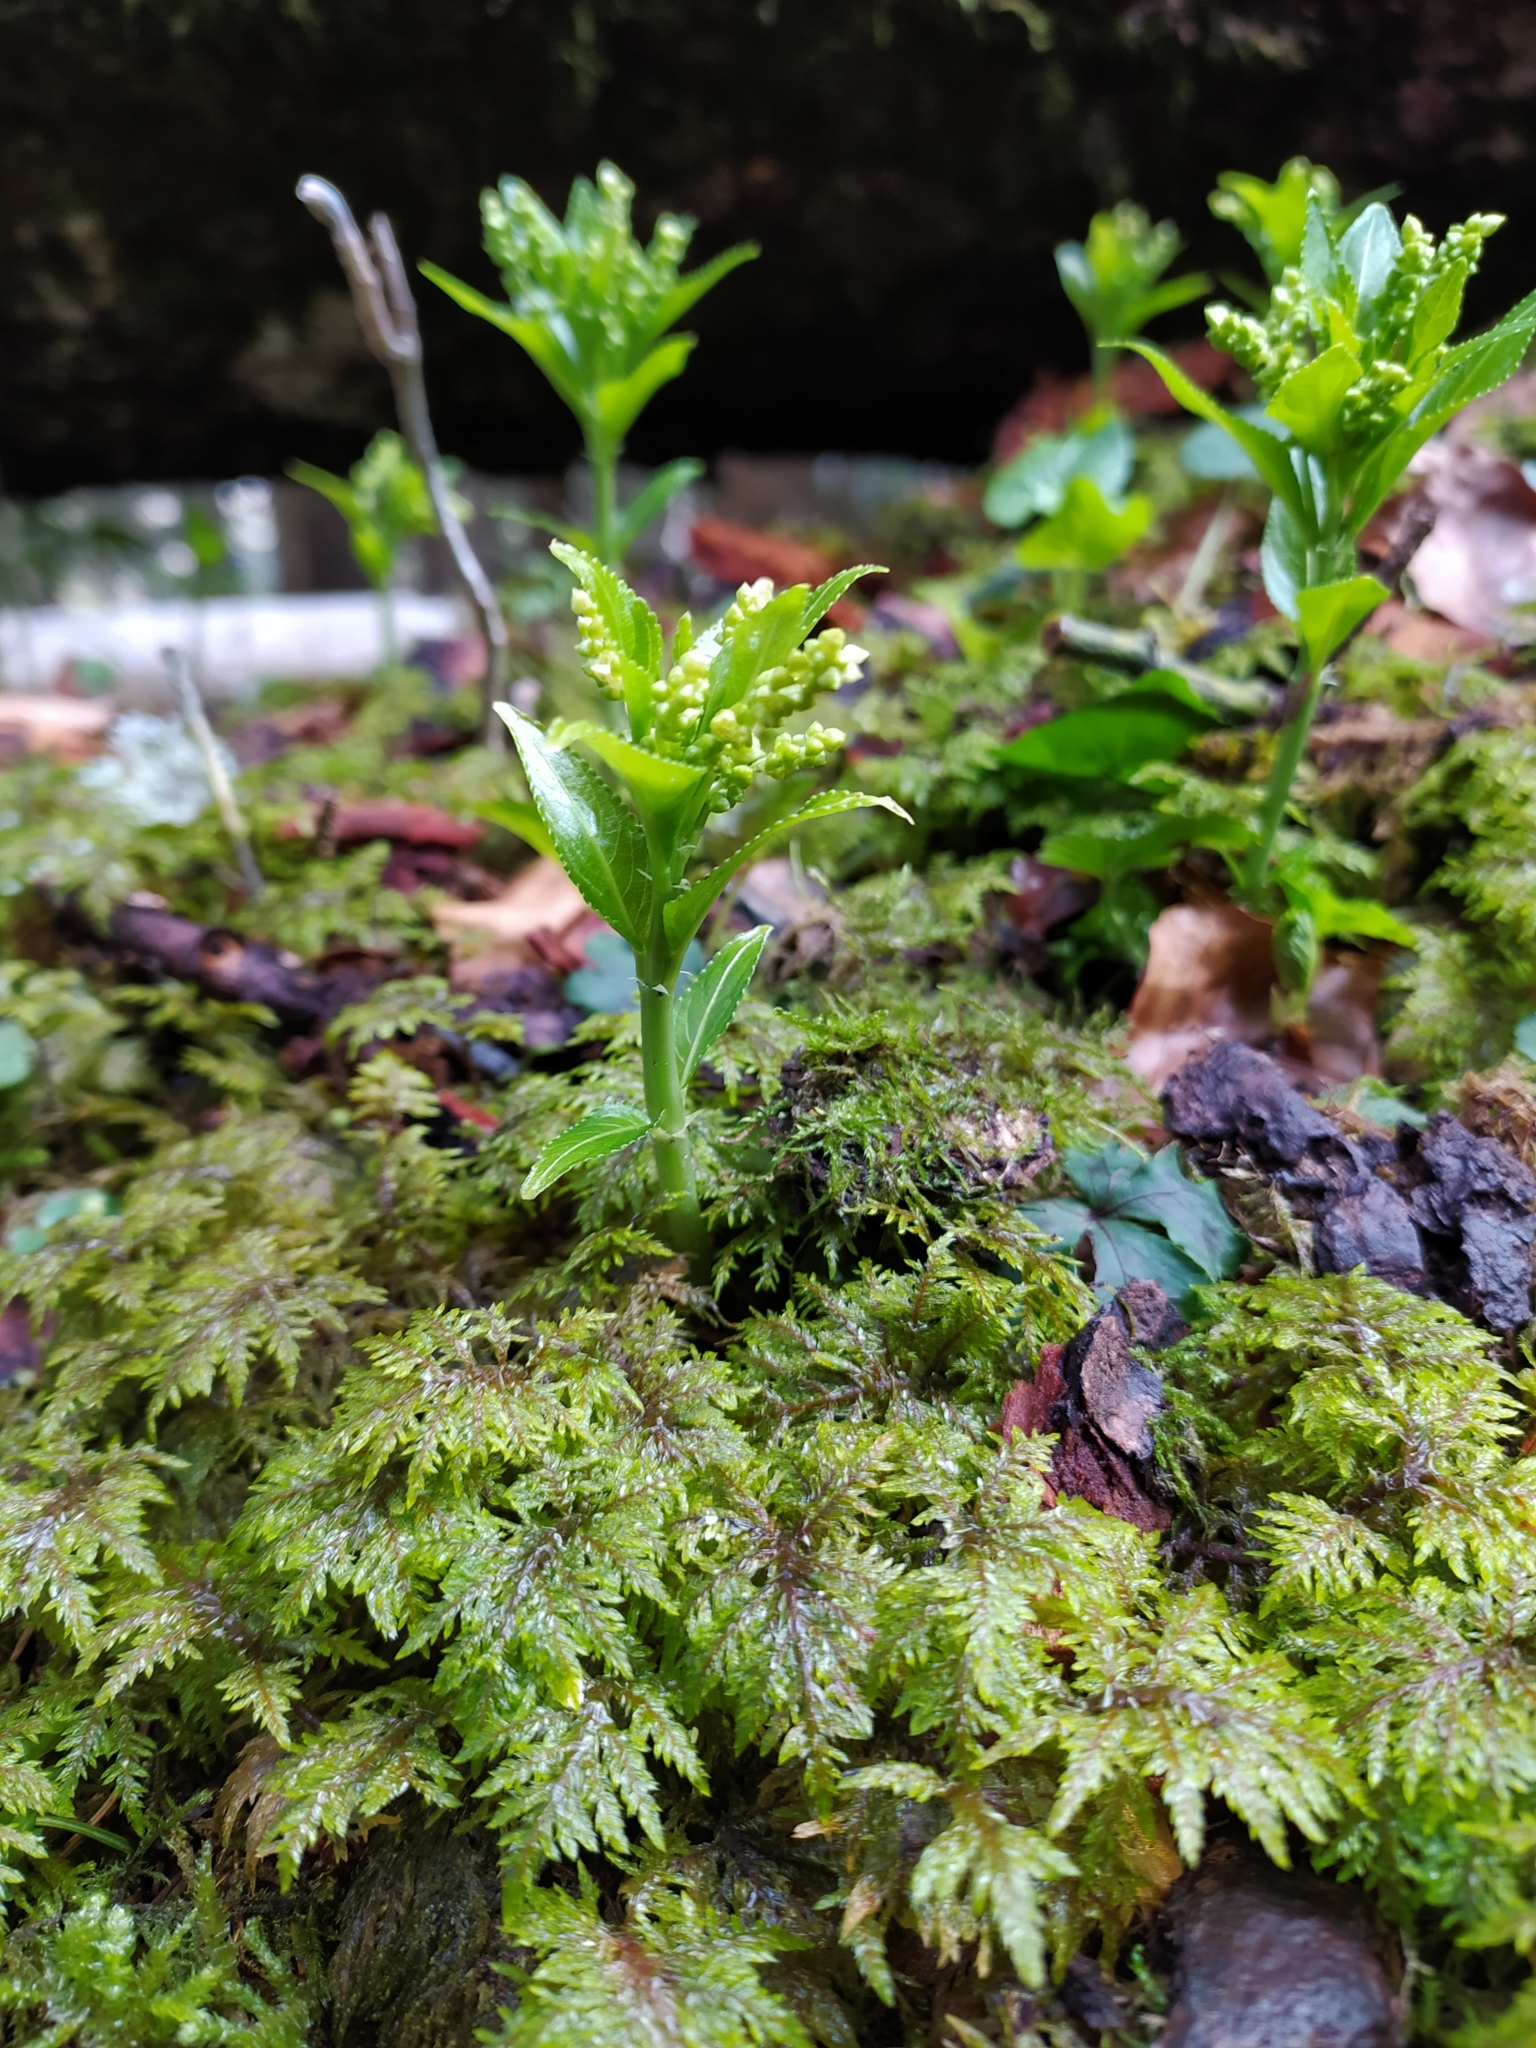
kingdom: Plantae
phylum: Tracheophyta
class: Magnoliopsida
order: Malpighiales
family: Euphorbiaceae
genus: Mercurialis
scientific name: Mercurialis perennis
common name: Dog mercury
